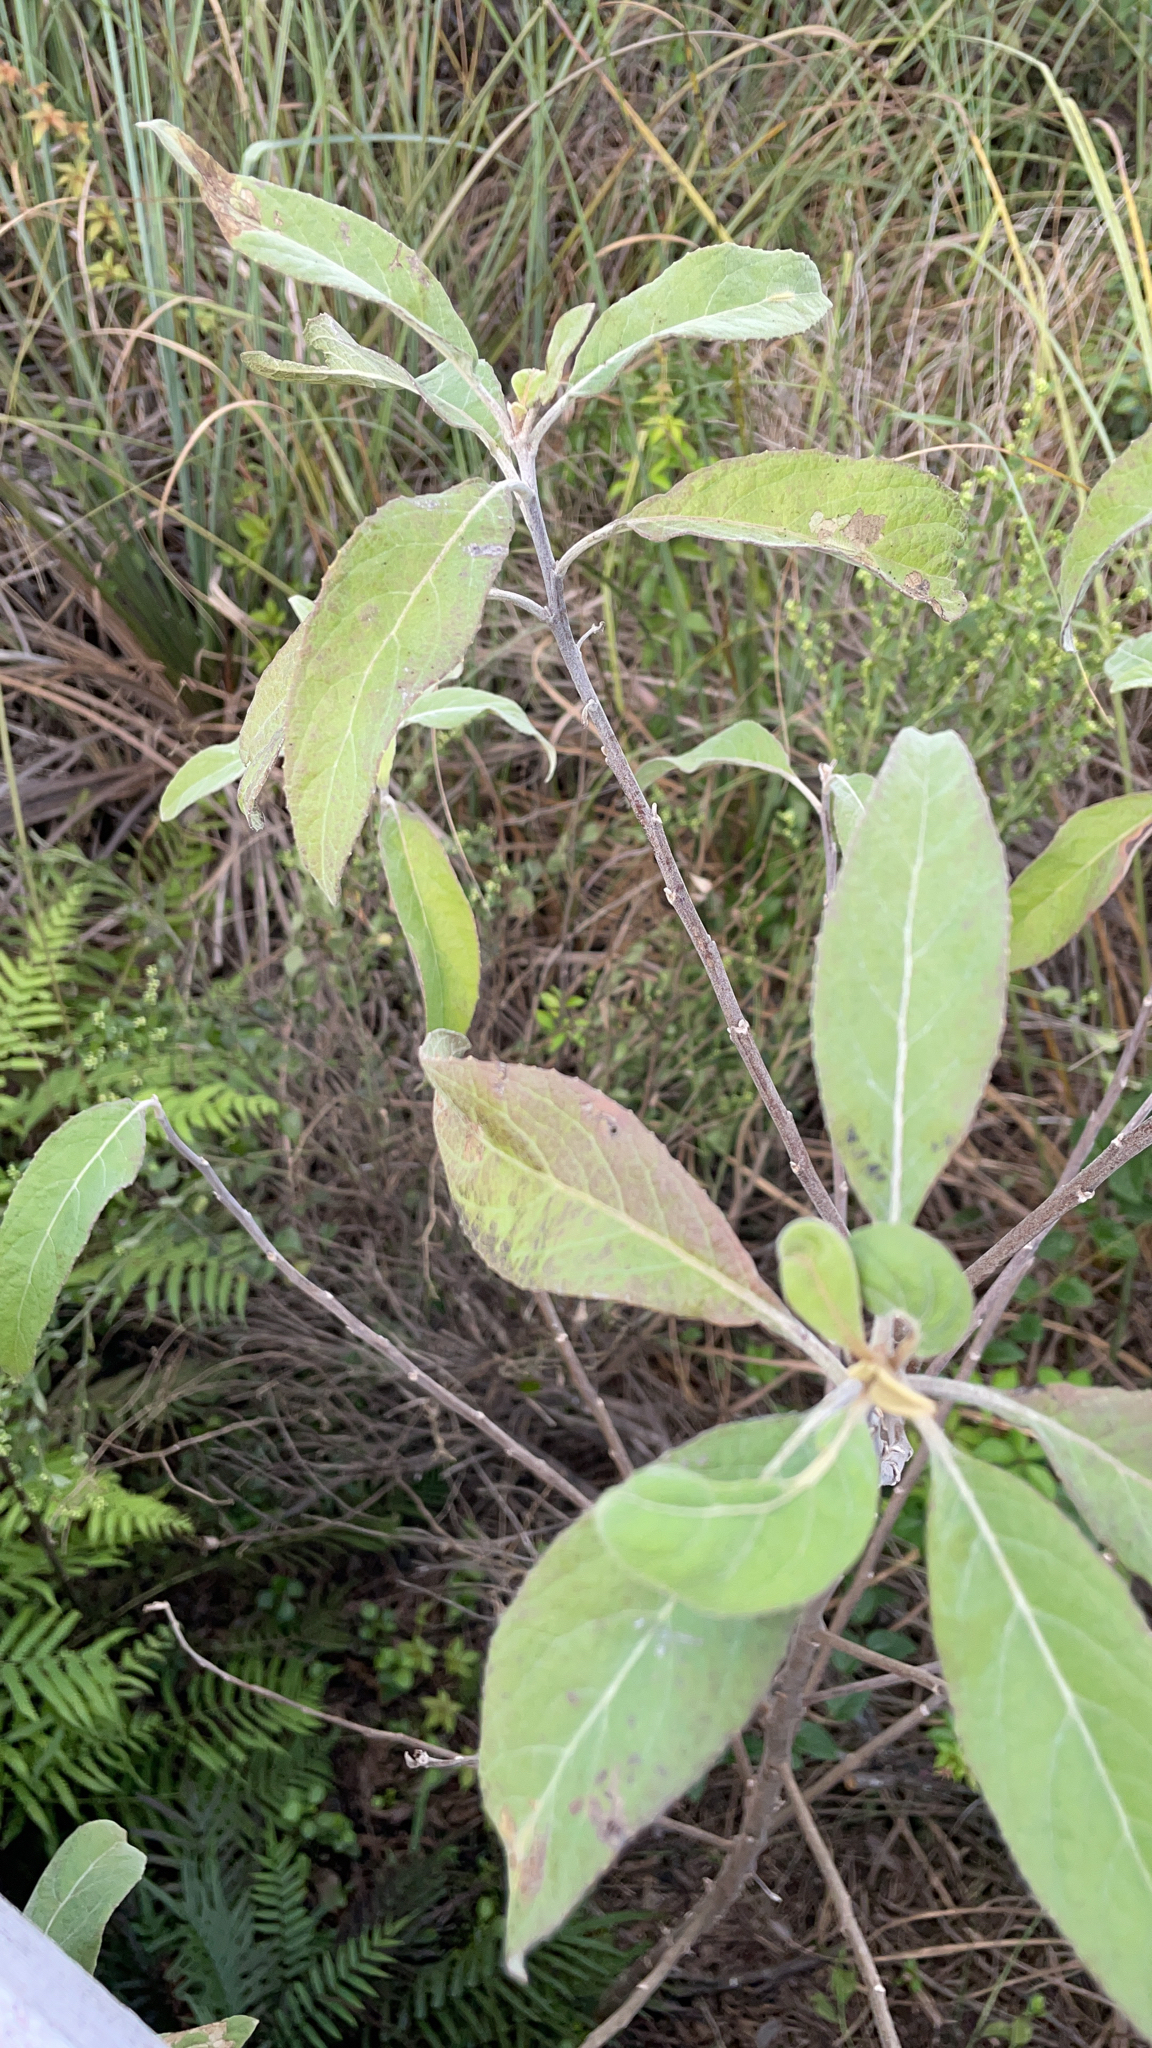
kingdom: Plantae
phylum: Tracheophyta
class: Magnoliopsida
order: Asterales
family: Asteraceae
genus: Pluchea
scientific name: Pluchea carolinensis
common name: Marsh fleabane
